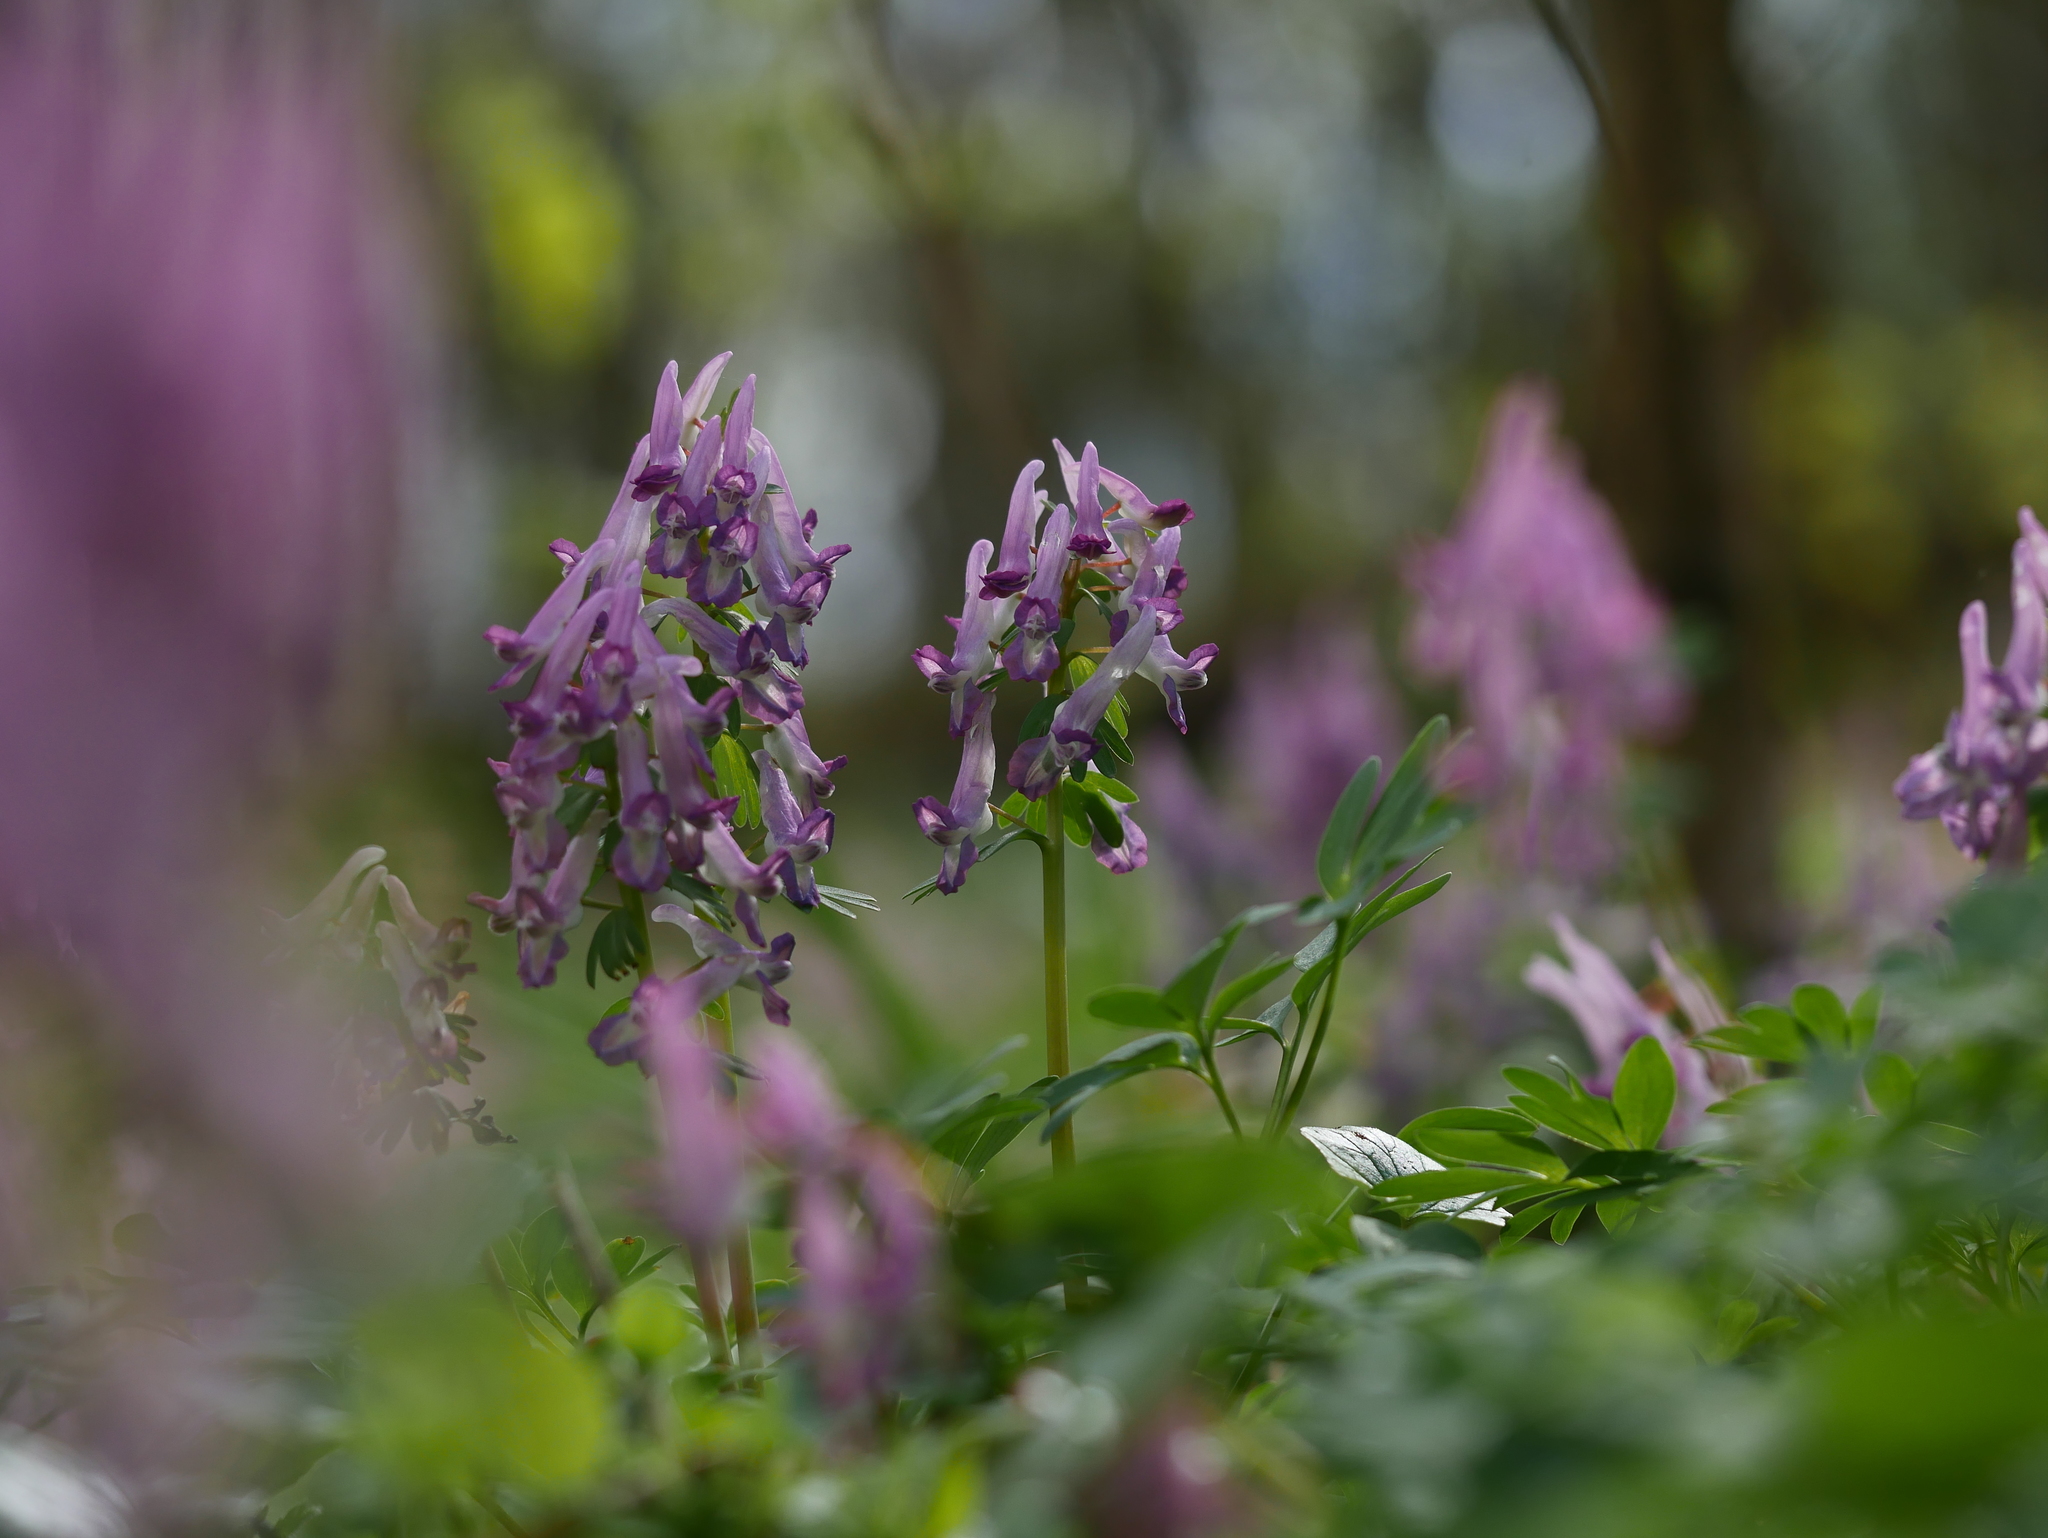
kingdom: Plantae
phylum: Tracheophyta
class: Magnoliopsida
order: Ranunculales
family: Papaveraceae
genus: Corydalis
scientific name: Corydalis solida
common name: Bird-in-a-bush
